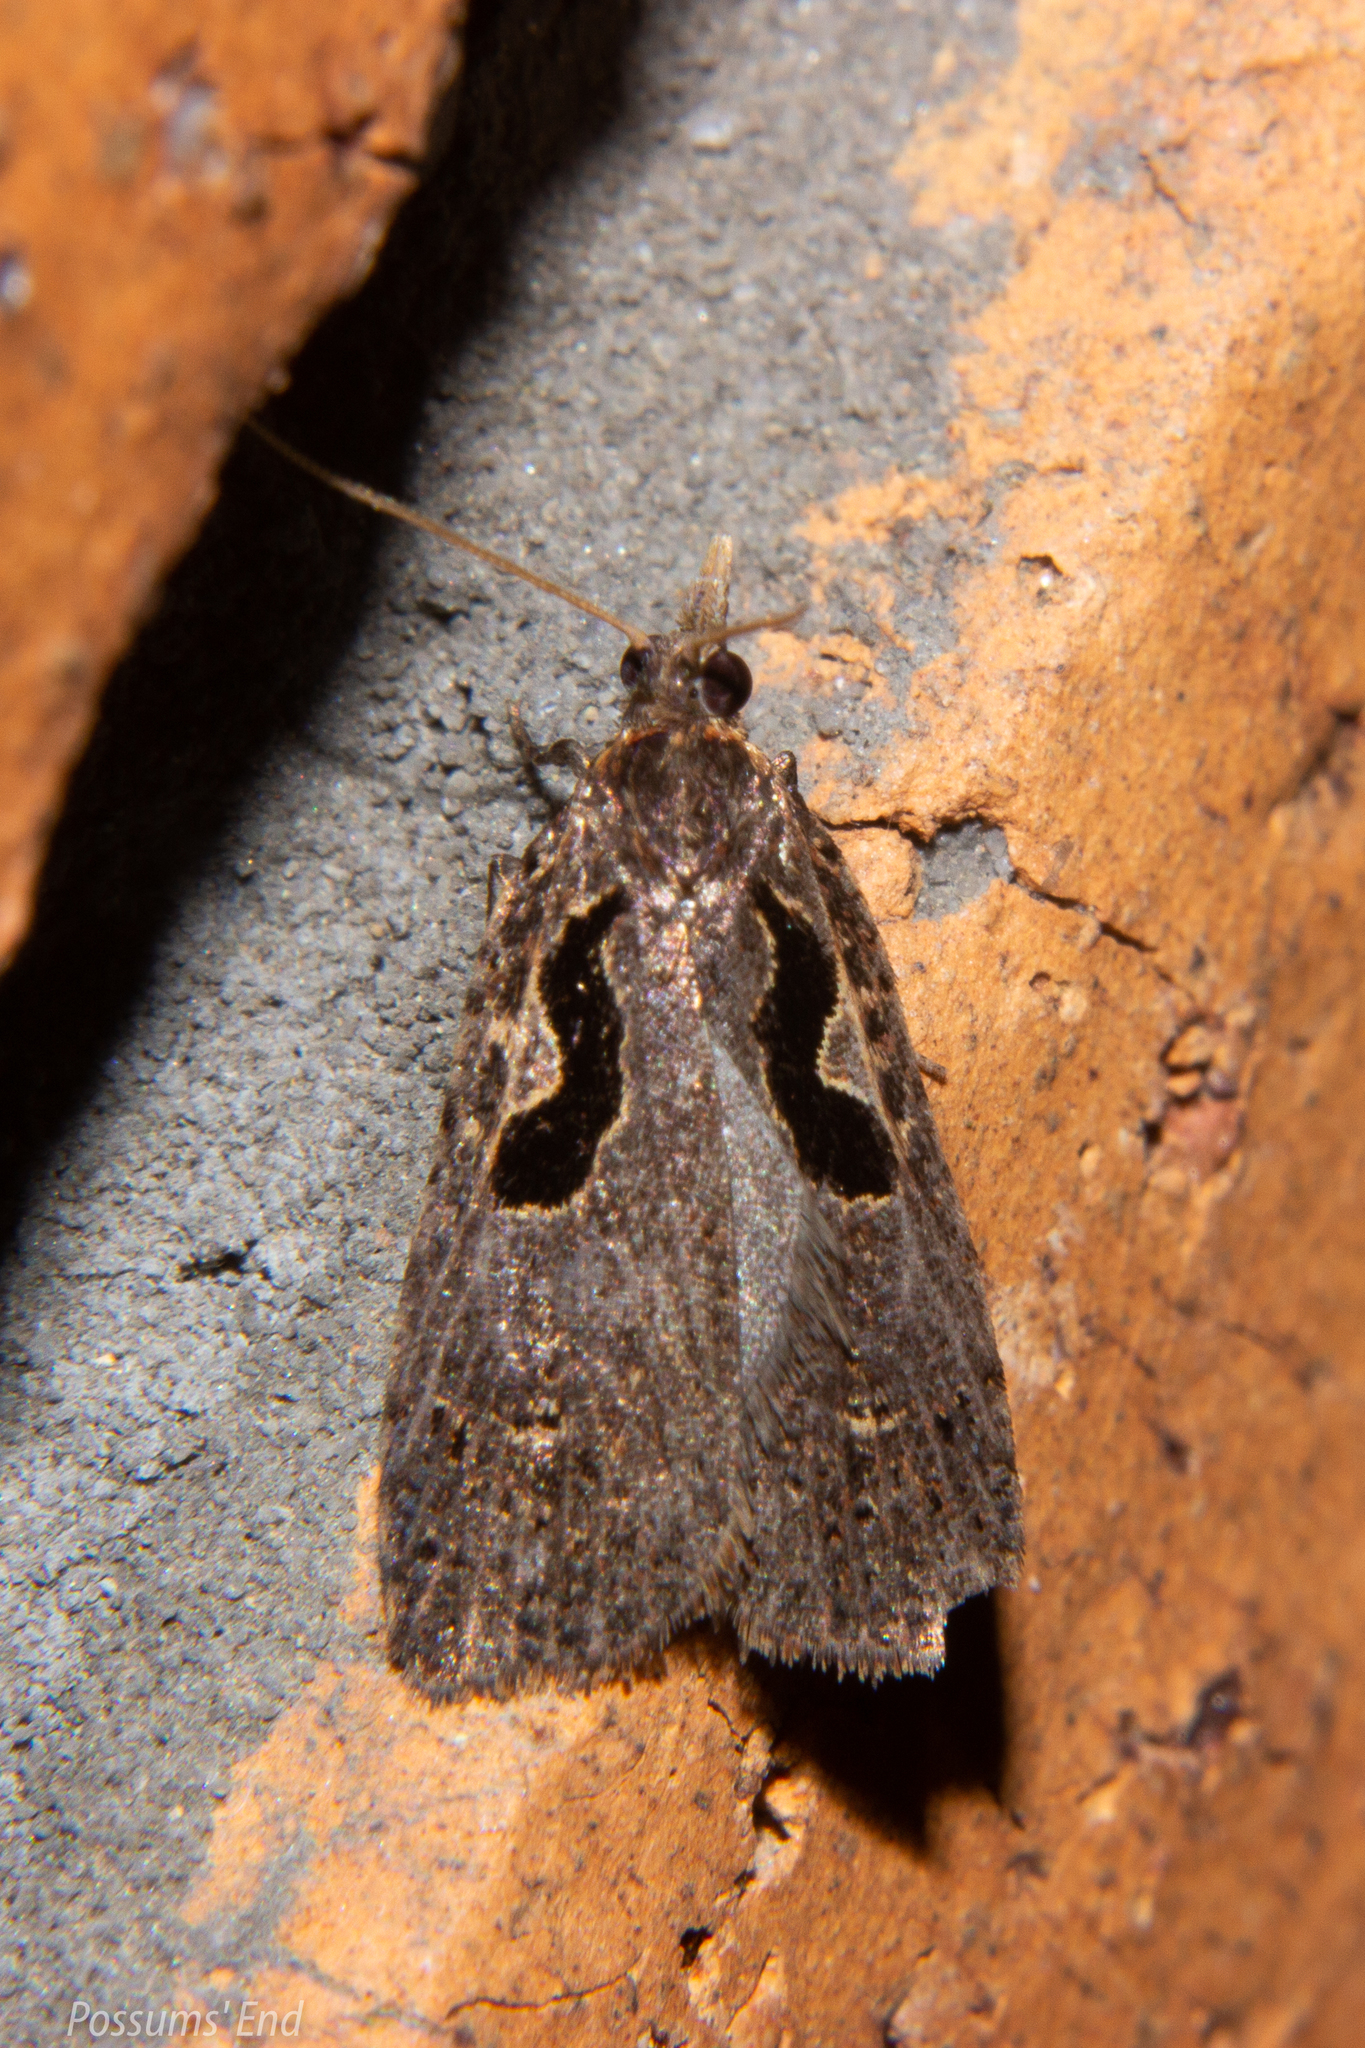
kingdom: Animalia
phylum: Arthropoda
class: Insecta
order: Lepidoptera
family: Tortricidae
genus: Cnephasia
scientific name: Cnephasia jactatana
